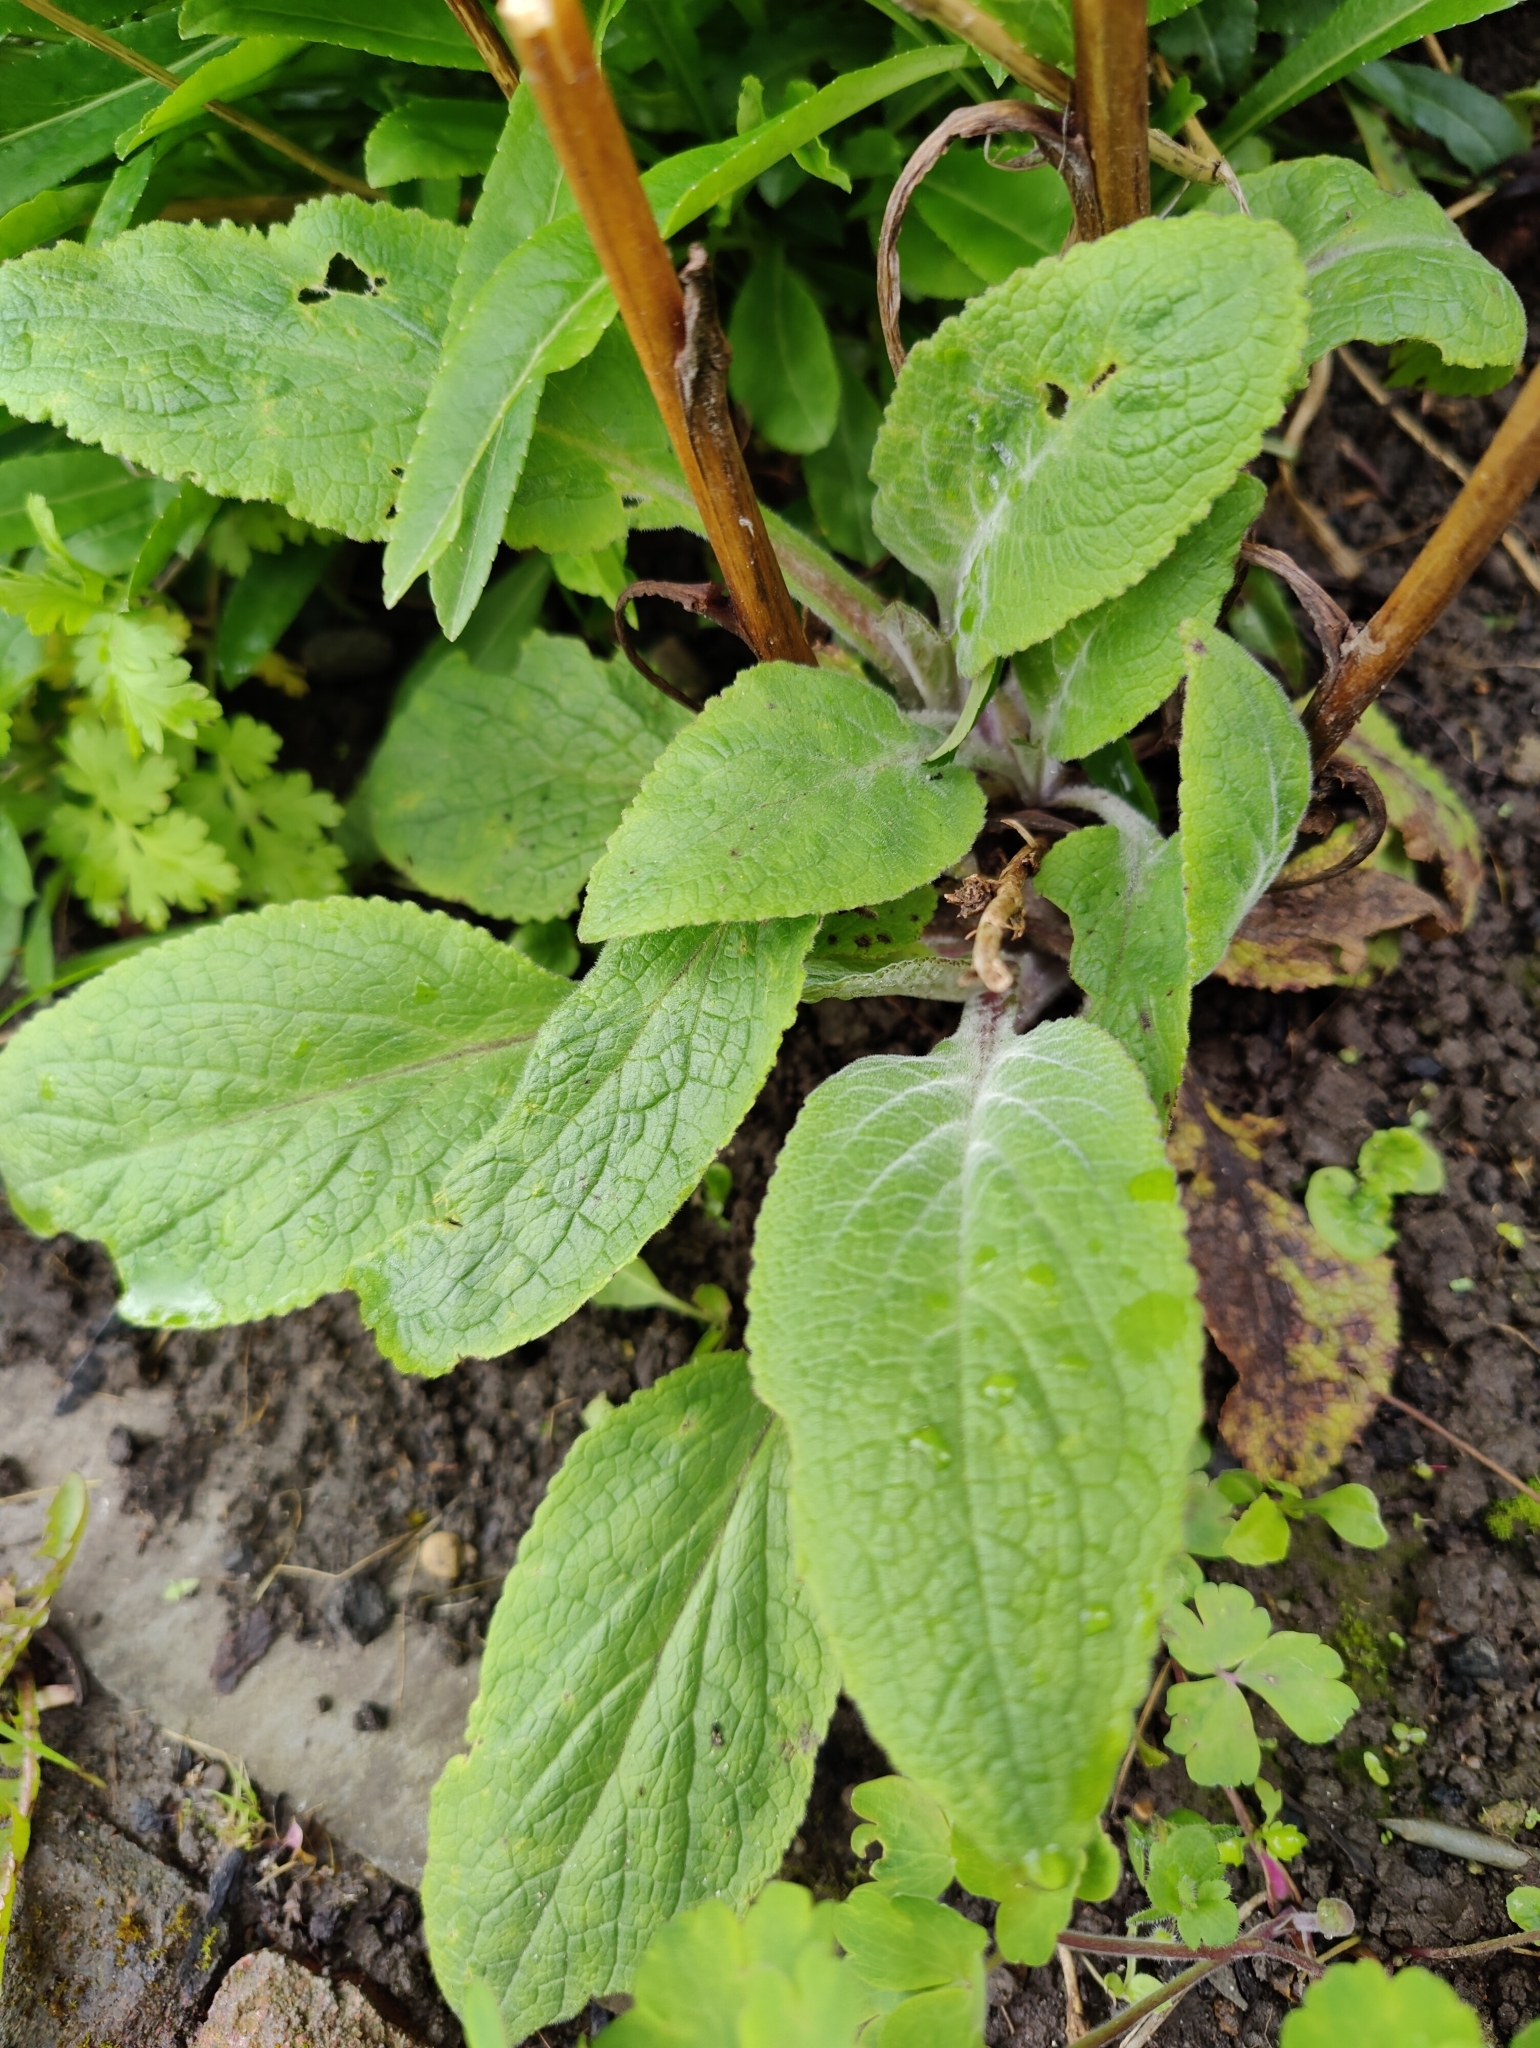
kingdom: Plantae
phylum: Tracheophyta
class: Magnoliopsida
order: Lamiales
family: Plantaginaceae
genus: Digitalis
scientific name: Digitalis purpurea
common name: Foxglove
